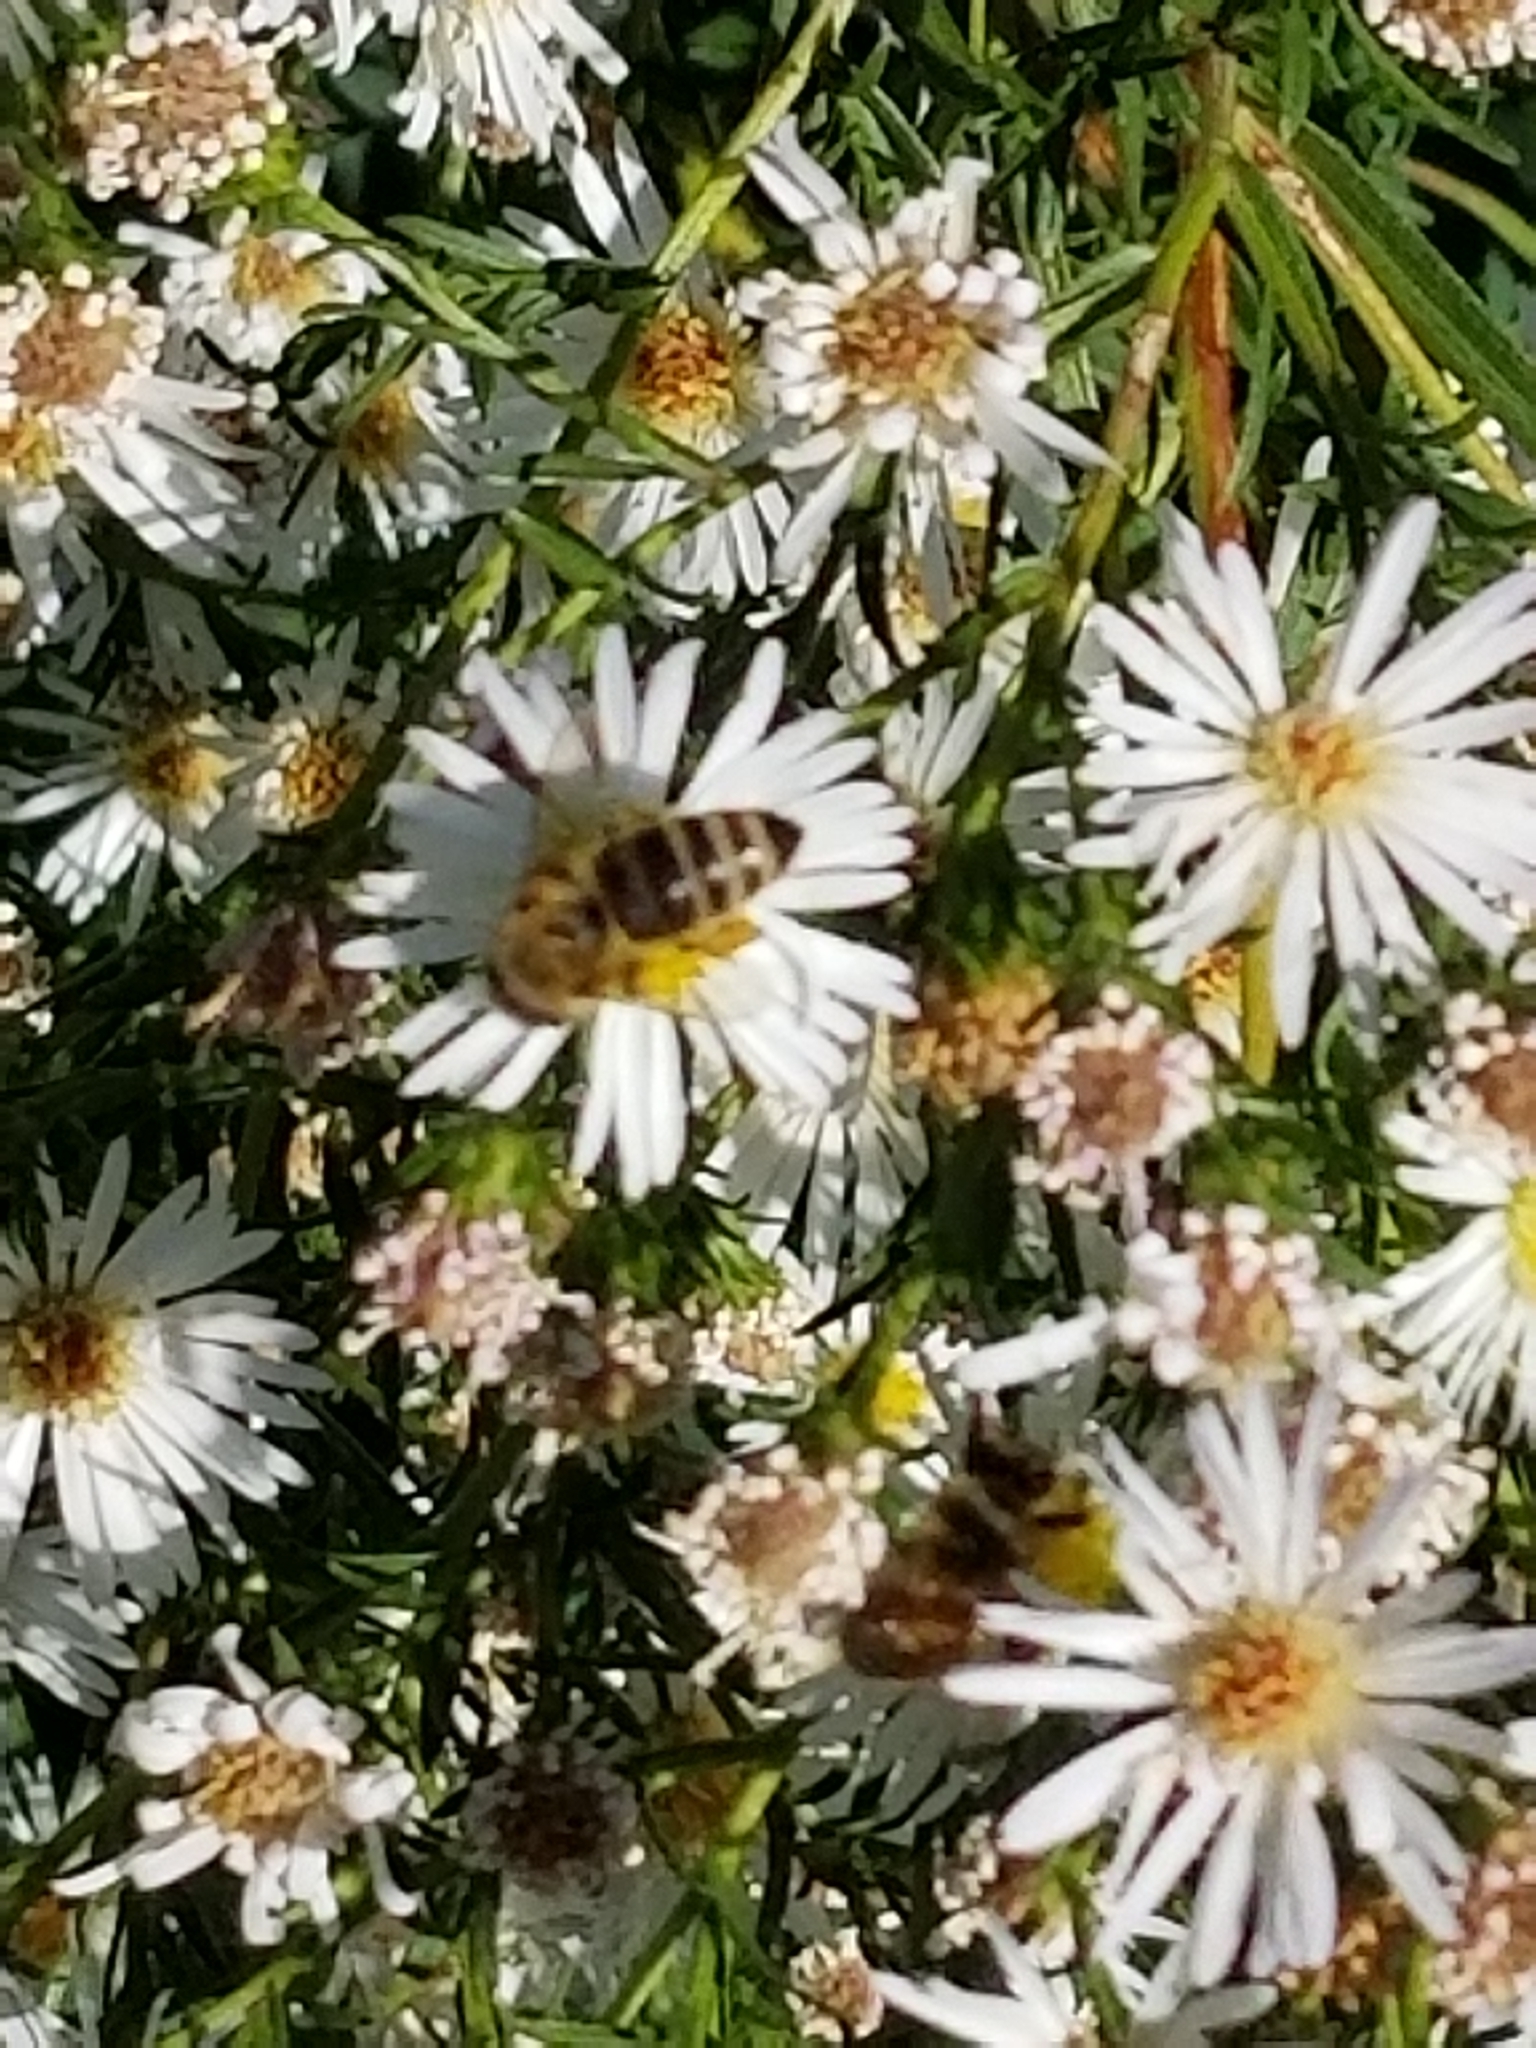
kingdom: Animalia
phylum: Arthropoda
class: Insecta
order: Hymenoptera
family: Apidae
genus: Apis
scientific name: Apis mellifera
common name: Honey bee
